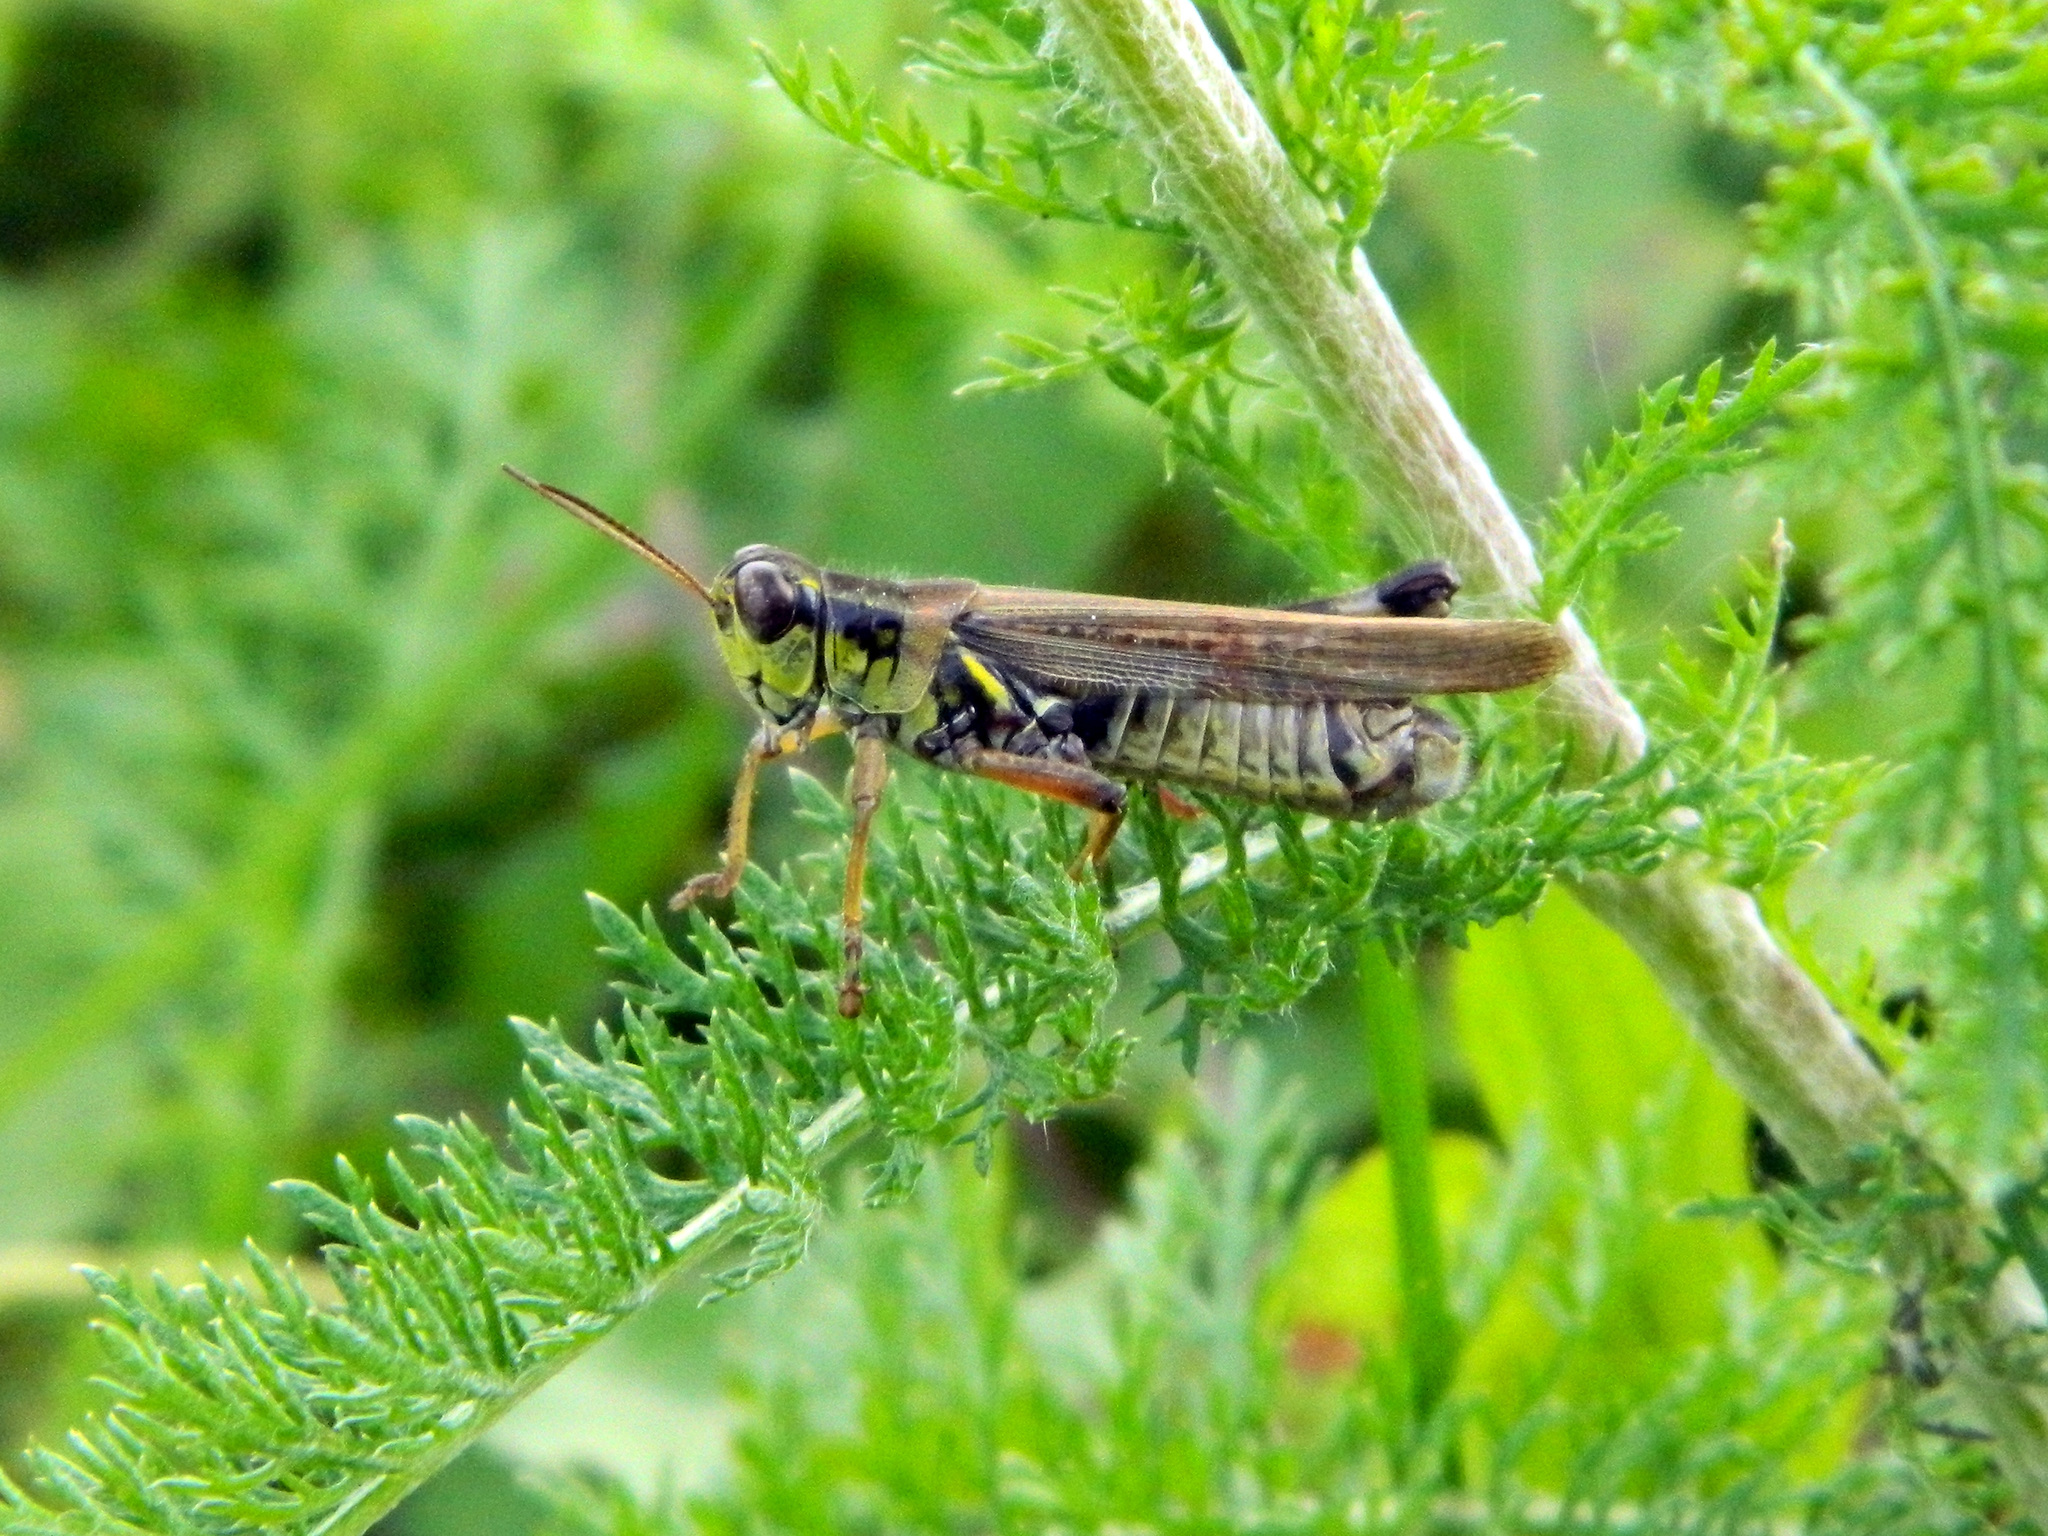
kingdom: Animalia
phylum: Arthropoda
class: Insecta
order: Orthoptera
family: Acrididae
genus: Melanoplus
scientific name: Melanoplus femurrubrum
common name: Red-legged grasshopper
